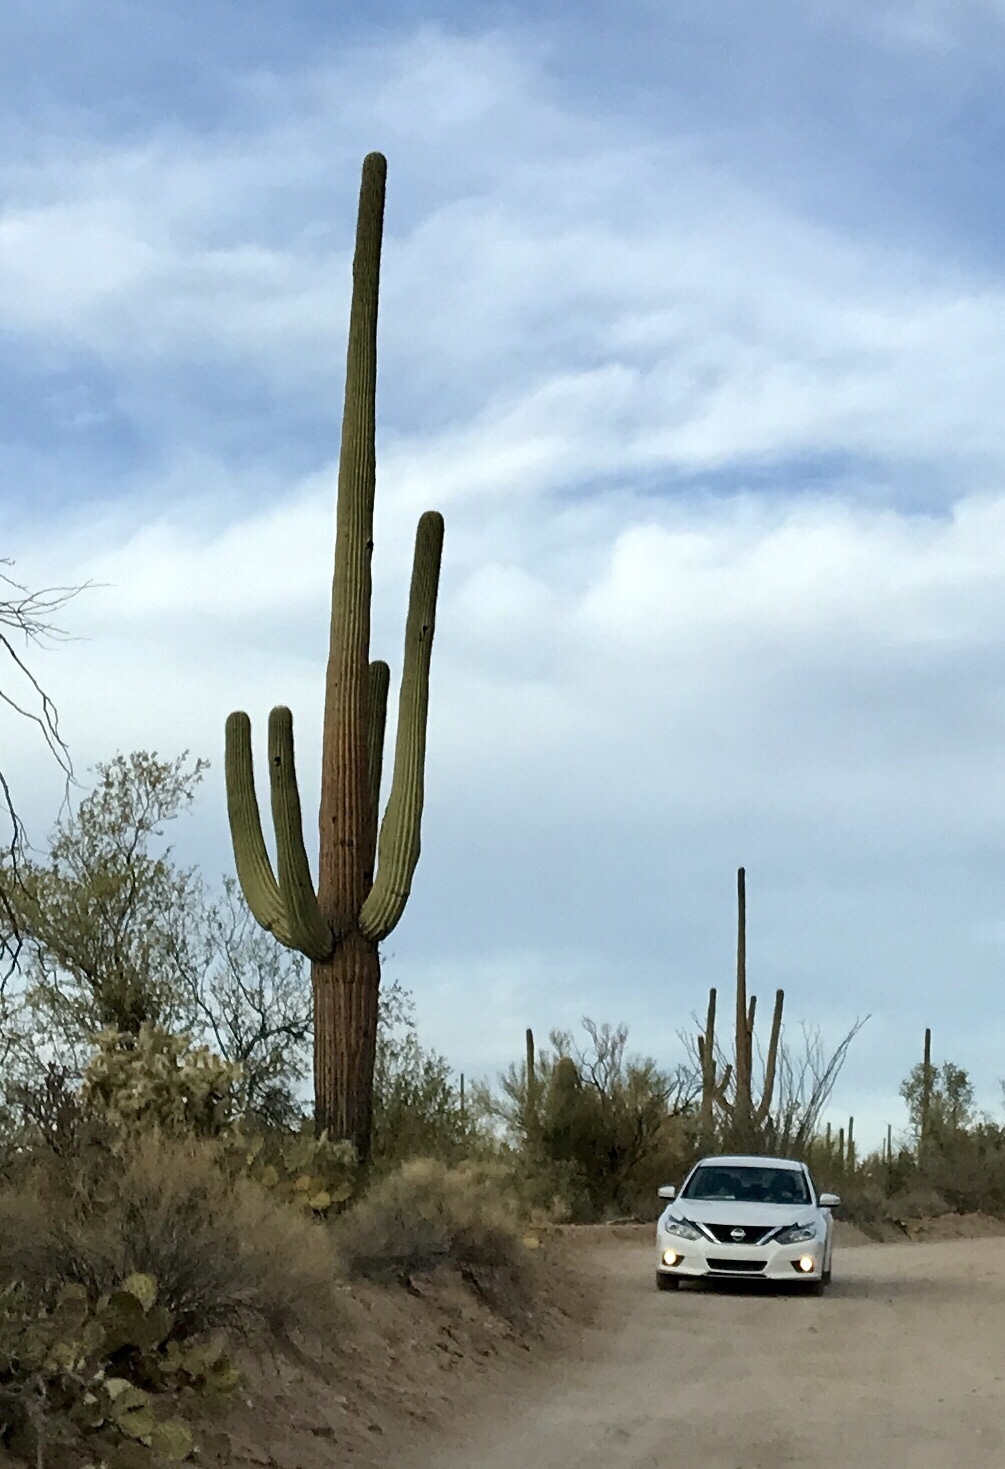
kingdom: Plantae
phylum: Tracheophyta
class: Magnoliopsida
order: Caryophyllales
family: Cactaceae
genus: Carnegiea
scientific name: Carnegiea gigantea
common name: Saguaro
